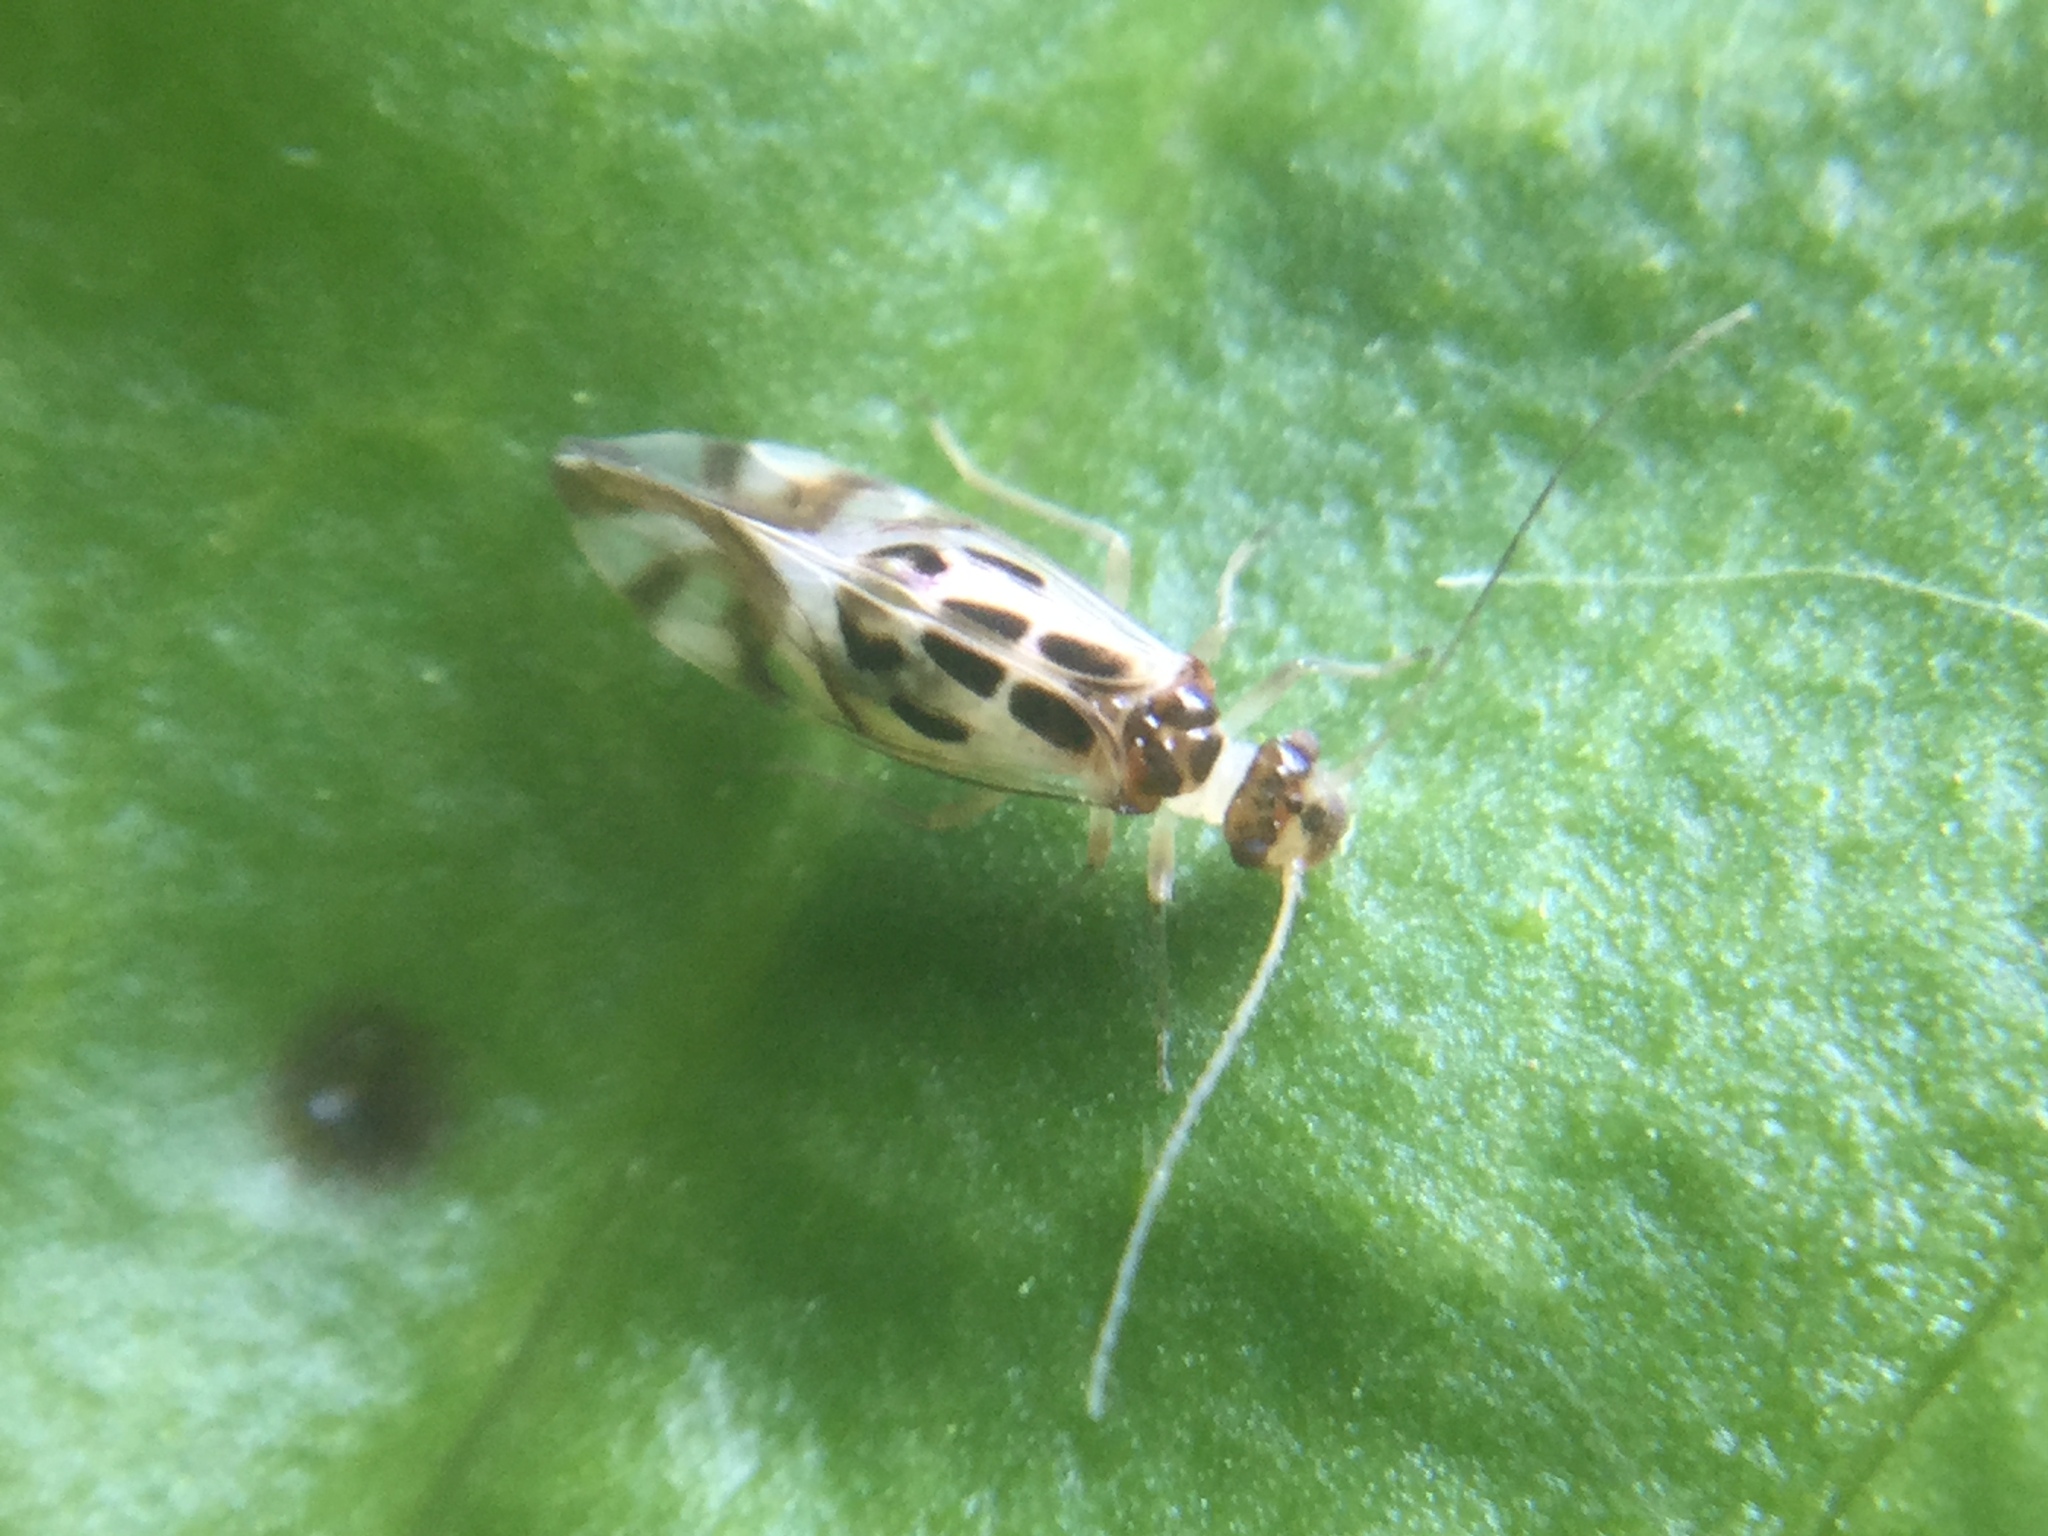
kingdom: Animalia
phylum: Arthropoda
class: Insecta
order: Psocodea
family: Stenopsocidae
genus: Graphopsocus
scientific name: Graphopsocus cruciatus
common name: Lizard bark louse
